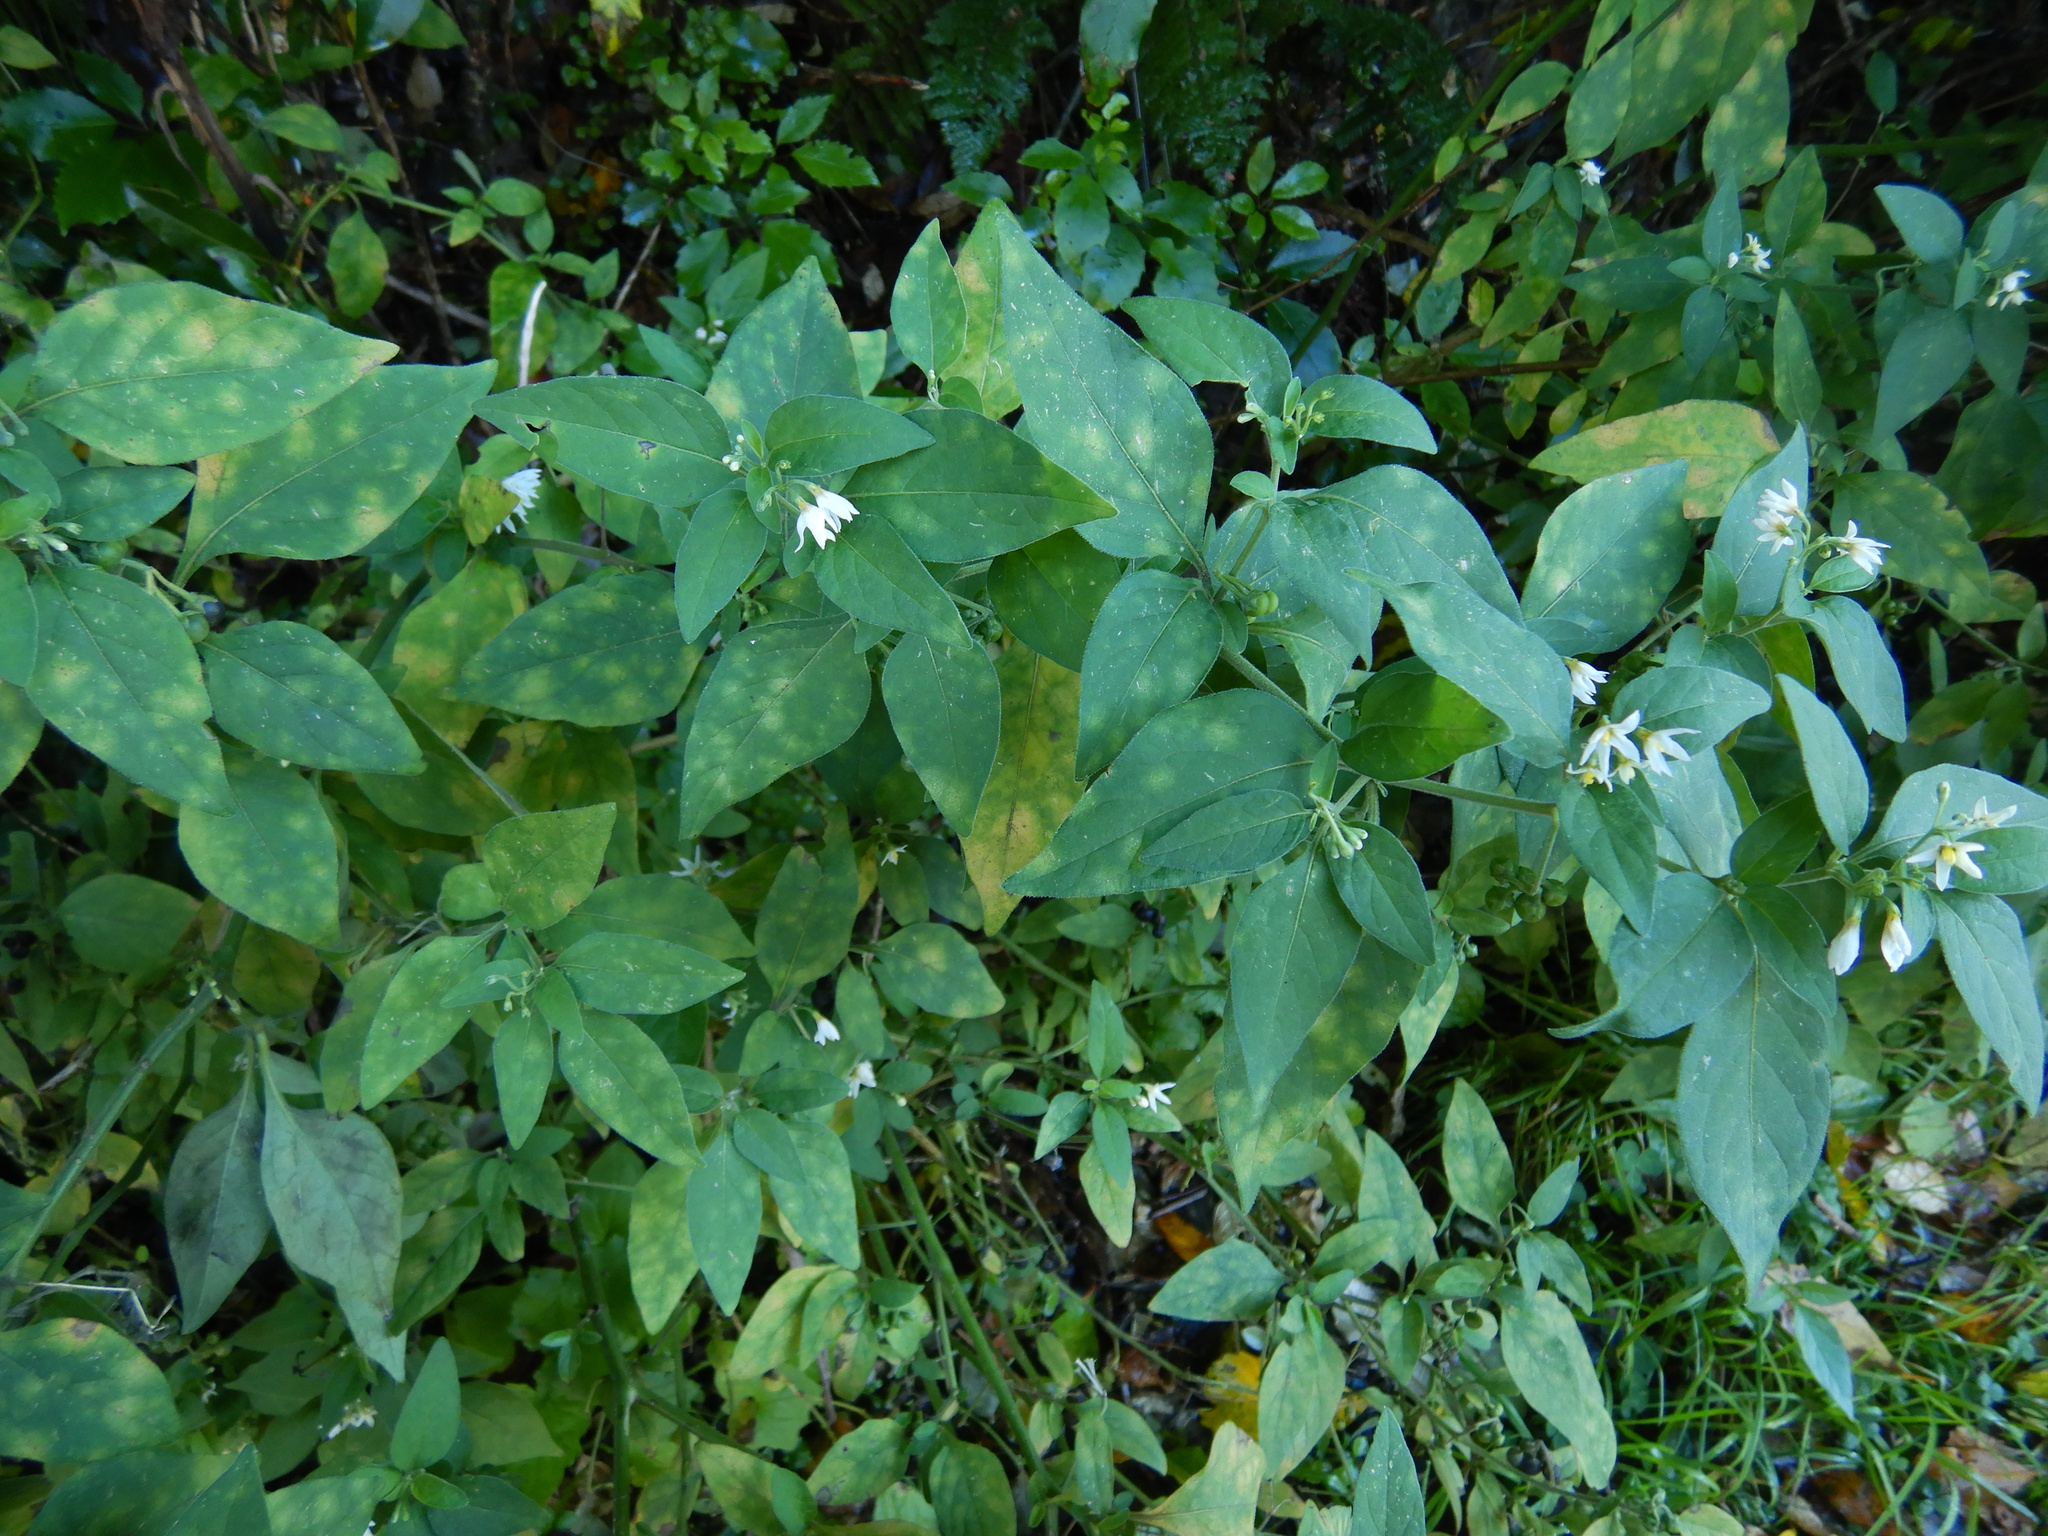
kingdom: Plantae
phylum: Tracheophyta
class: Magnoliopsida
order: Solanales
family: Solanaceae
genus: Solanum
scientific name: Solanum chenopodioides
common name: Tall nightshade
